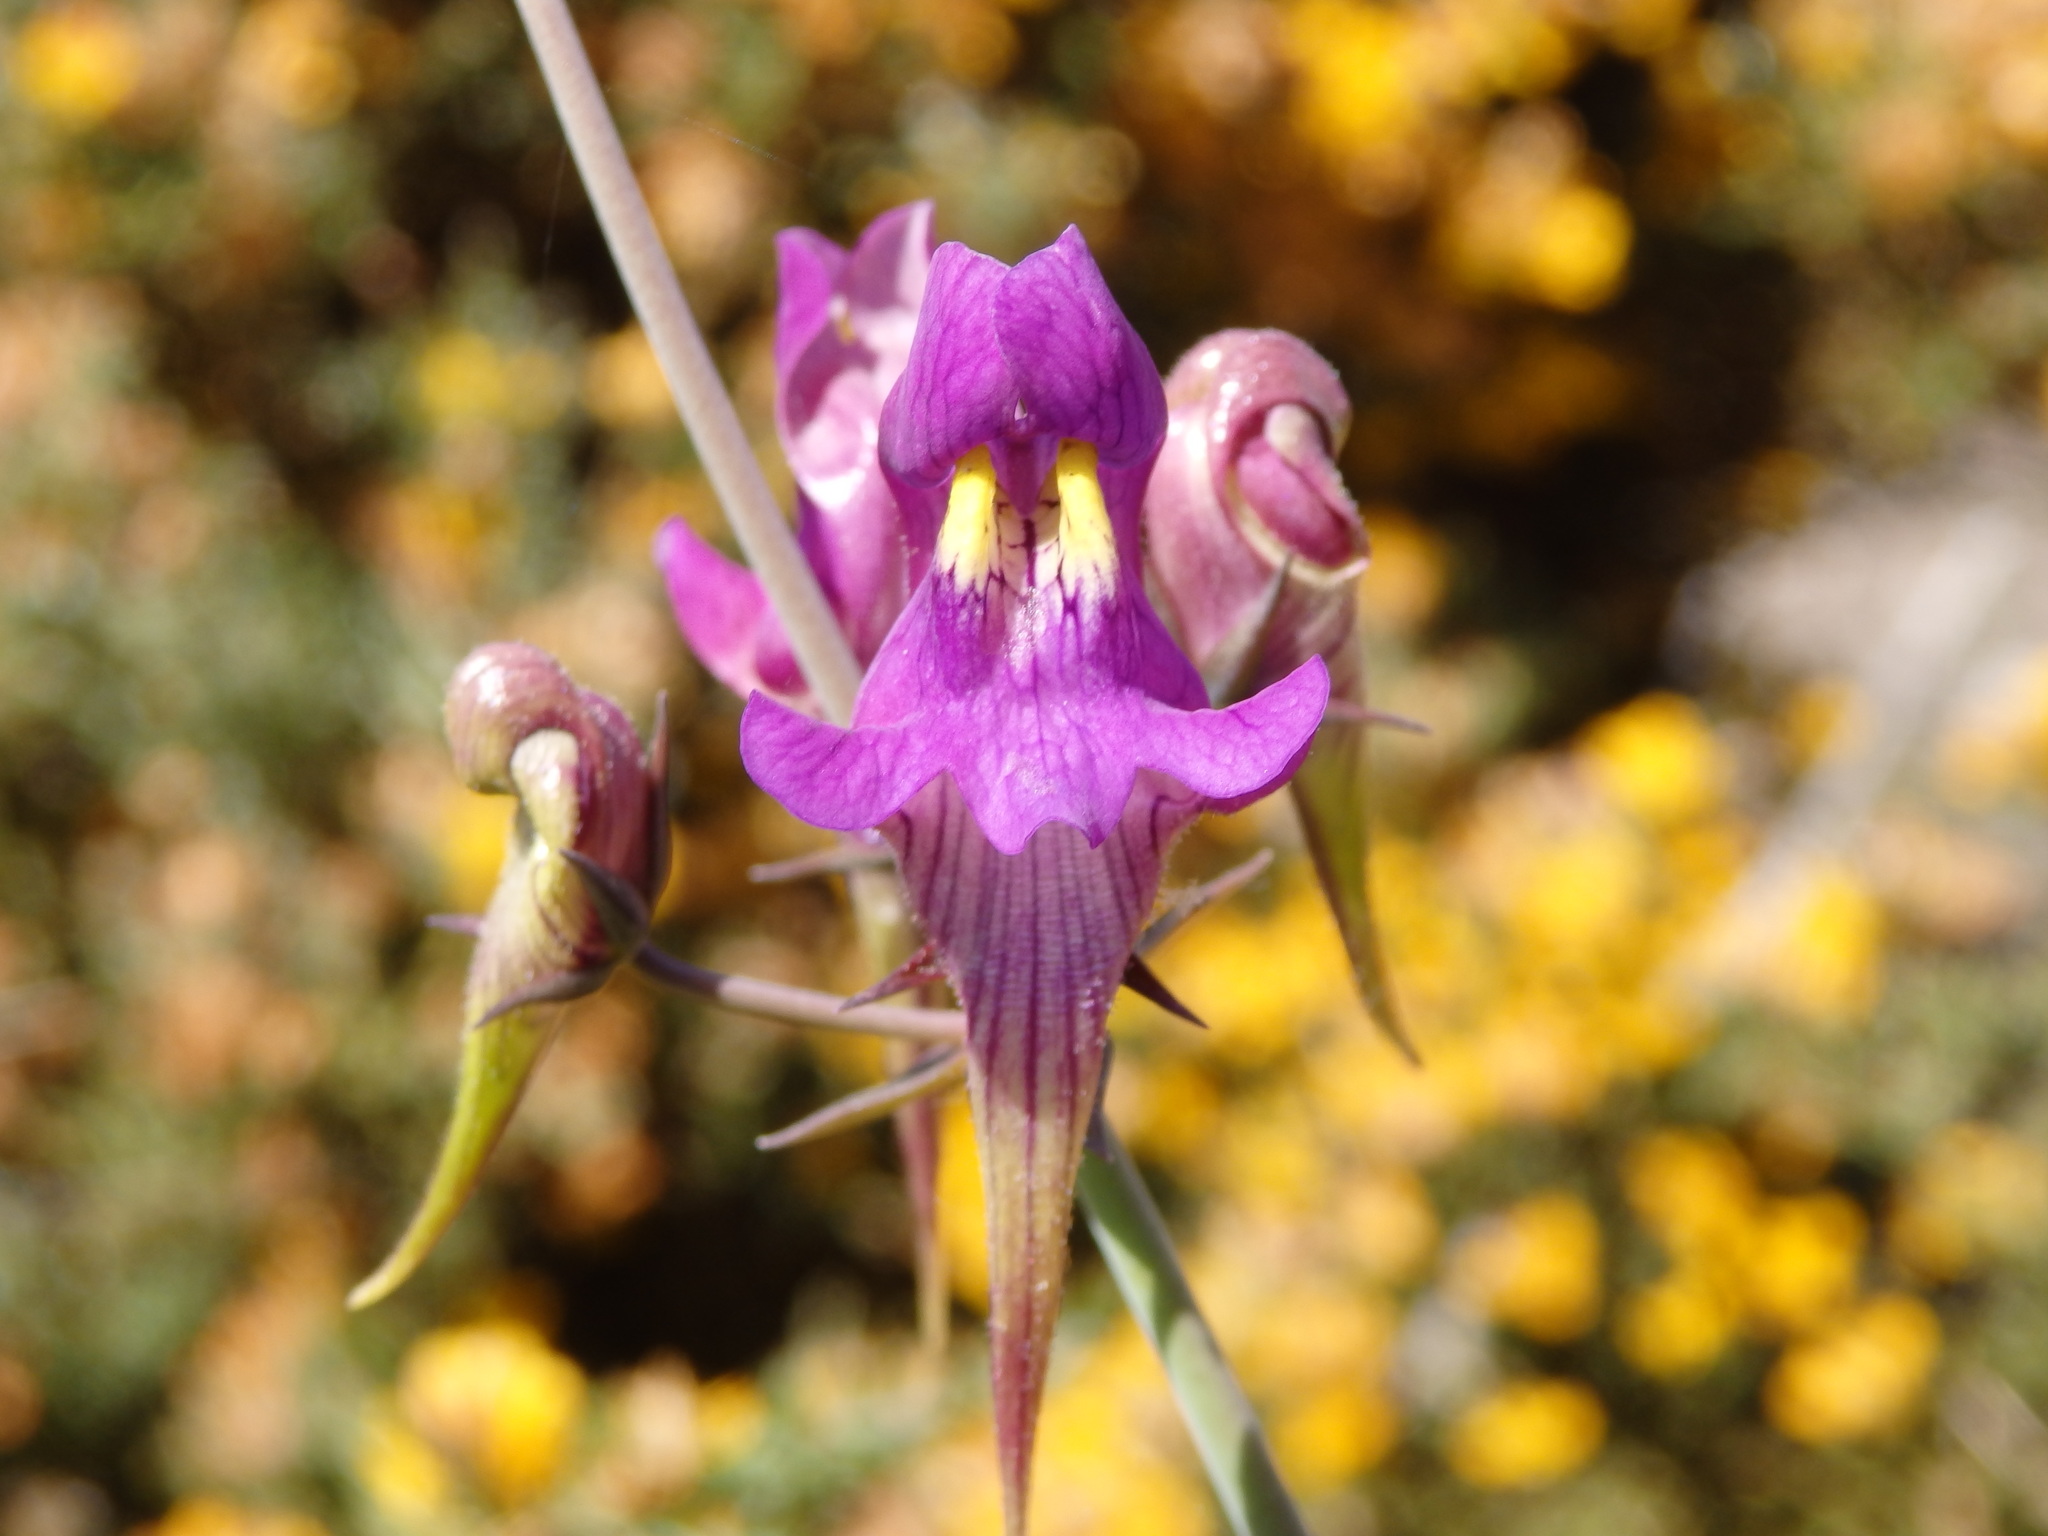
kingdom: Plantae
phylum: Tracheophyta
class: Magnoliopsida
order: Lamiales
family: Plantaginaceae
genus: Linaria
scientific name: Linaria triornithophora
